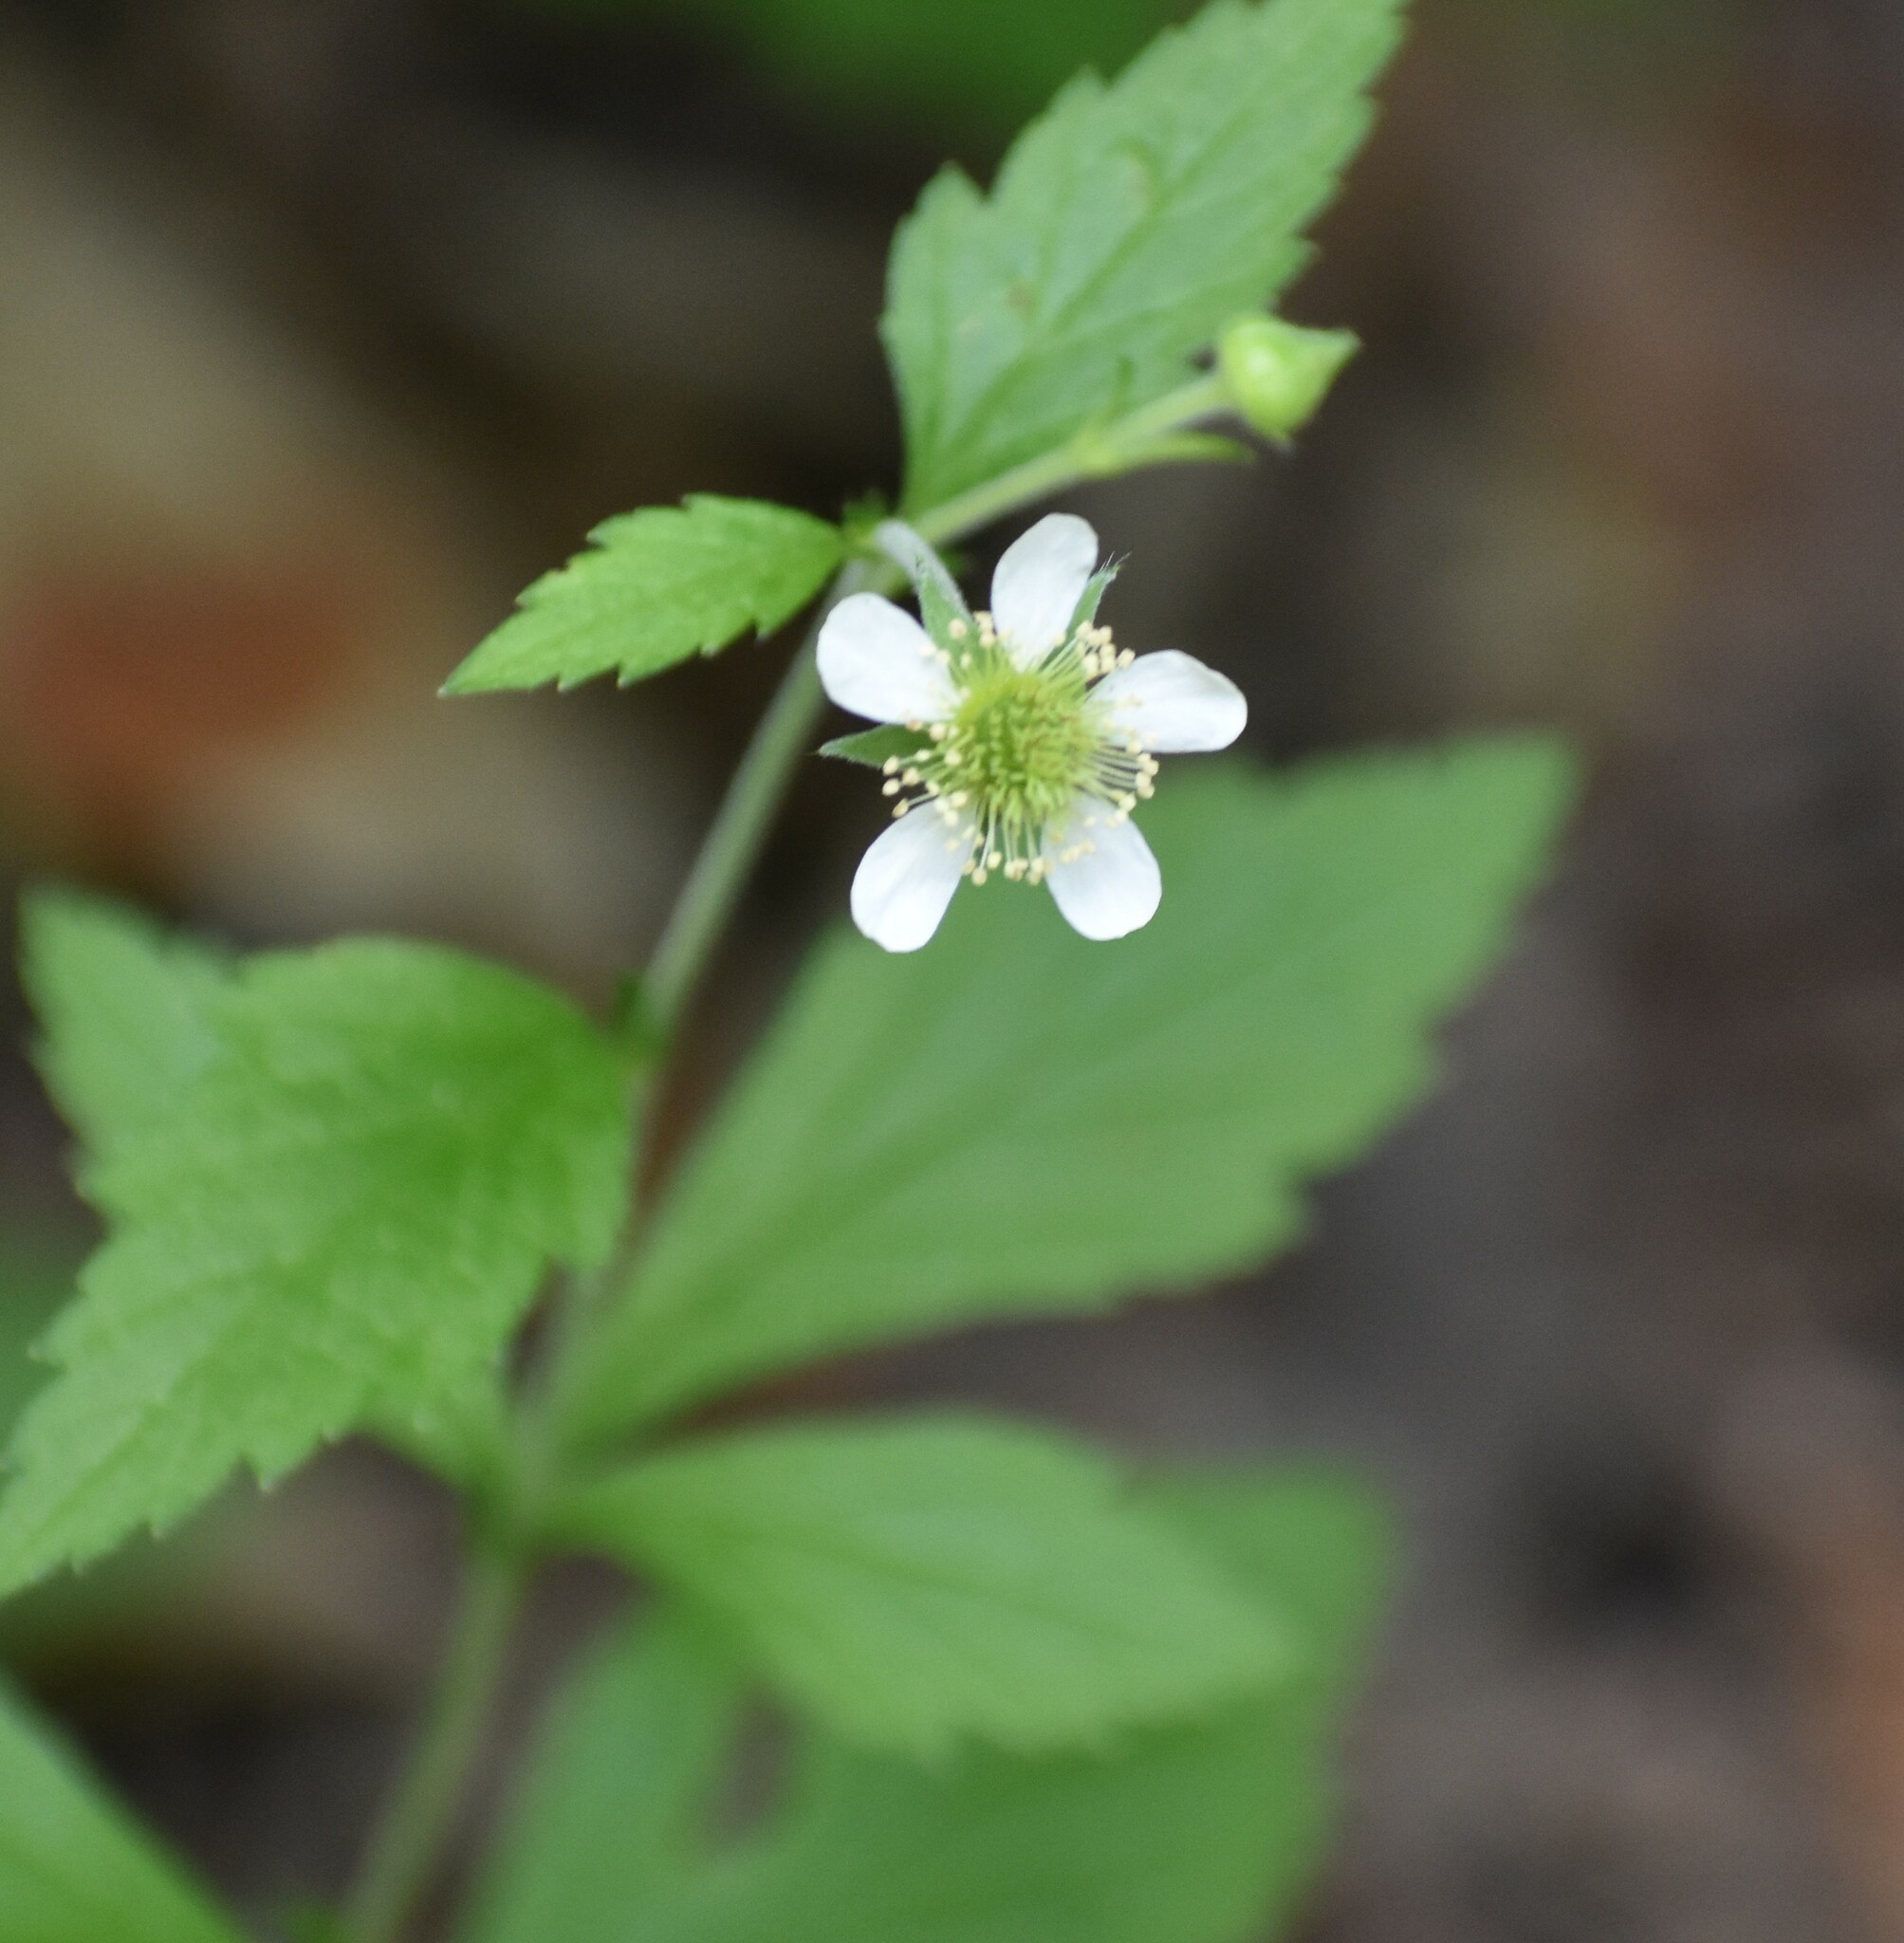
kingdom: Plantae
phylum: Tracheophyta
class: Magnoliopsida
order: Rosales
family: Rosaceae
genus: Geum
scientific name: Geum canadense
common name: White avens
